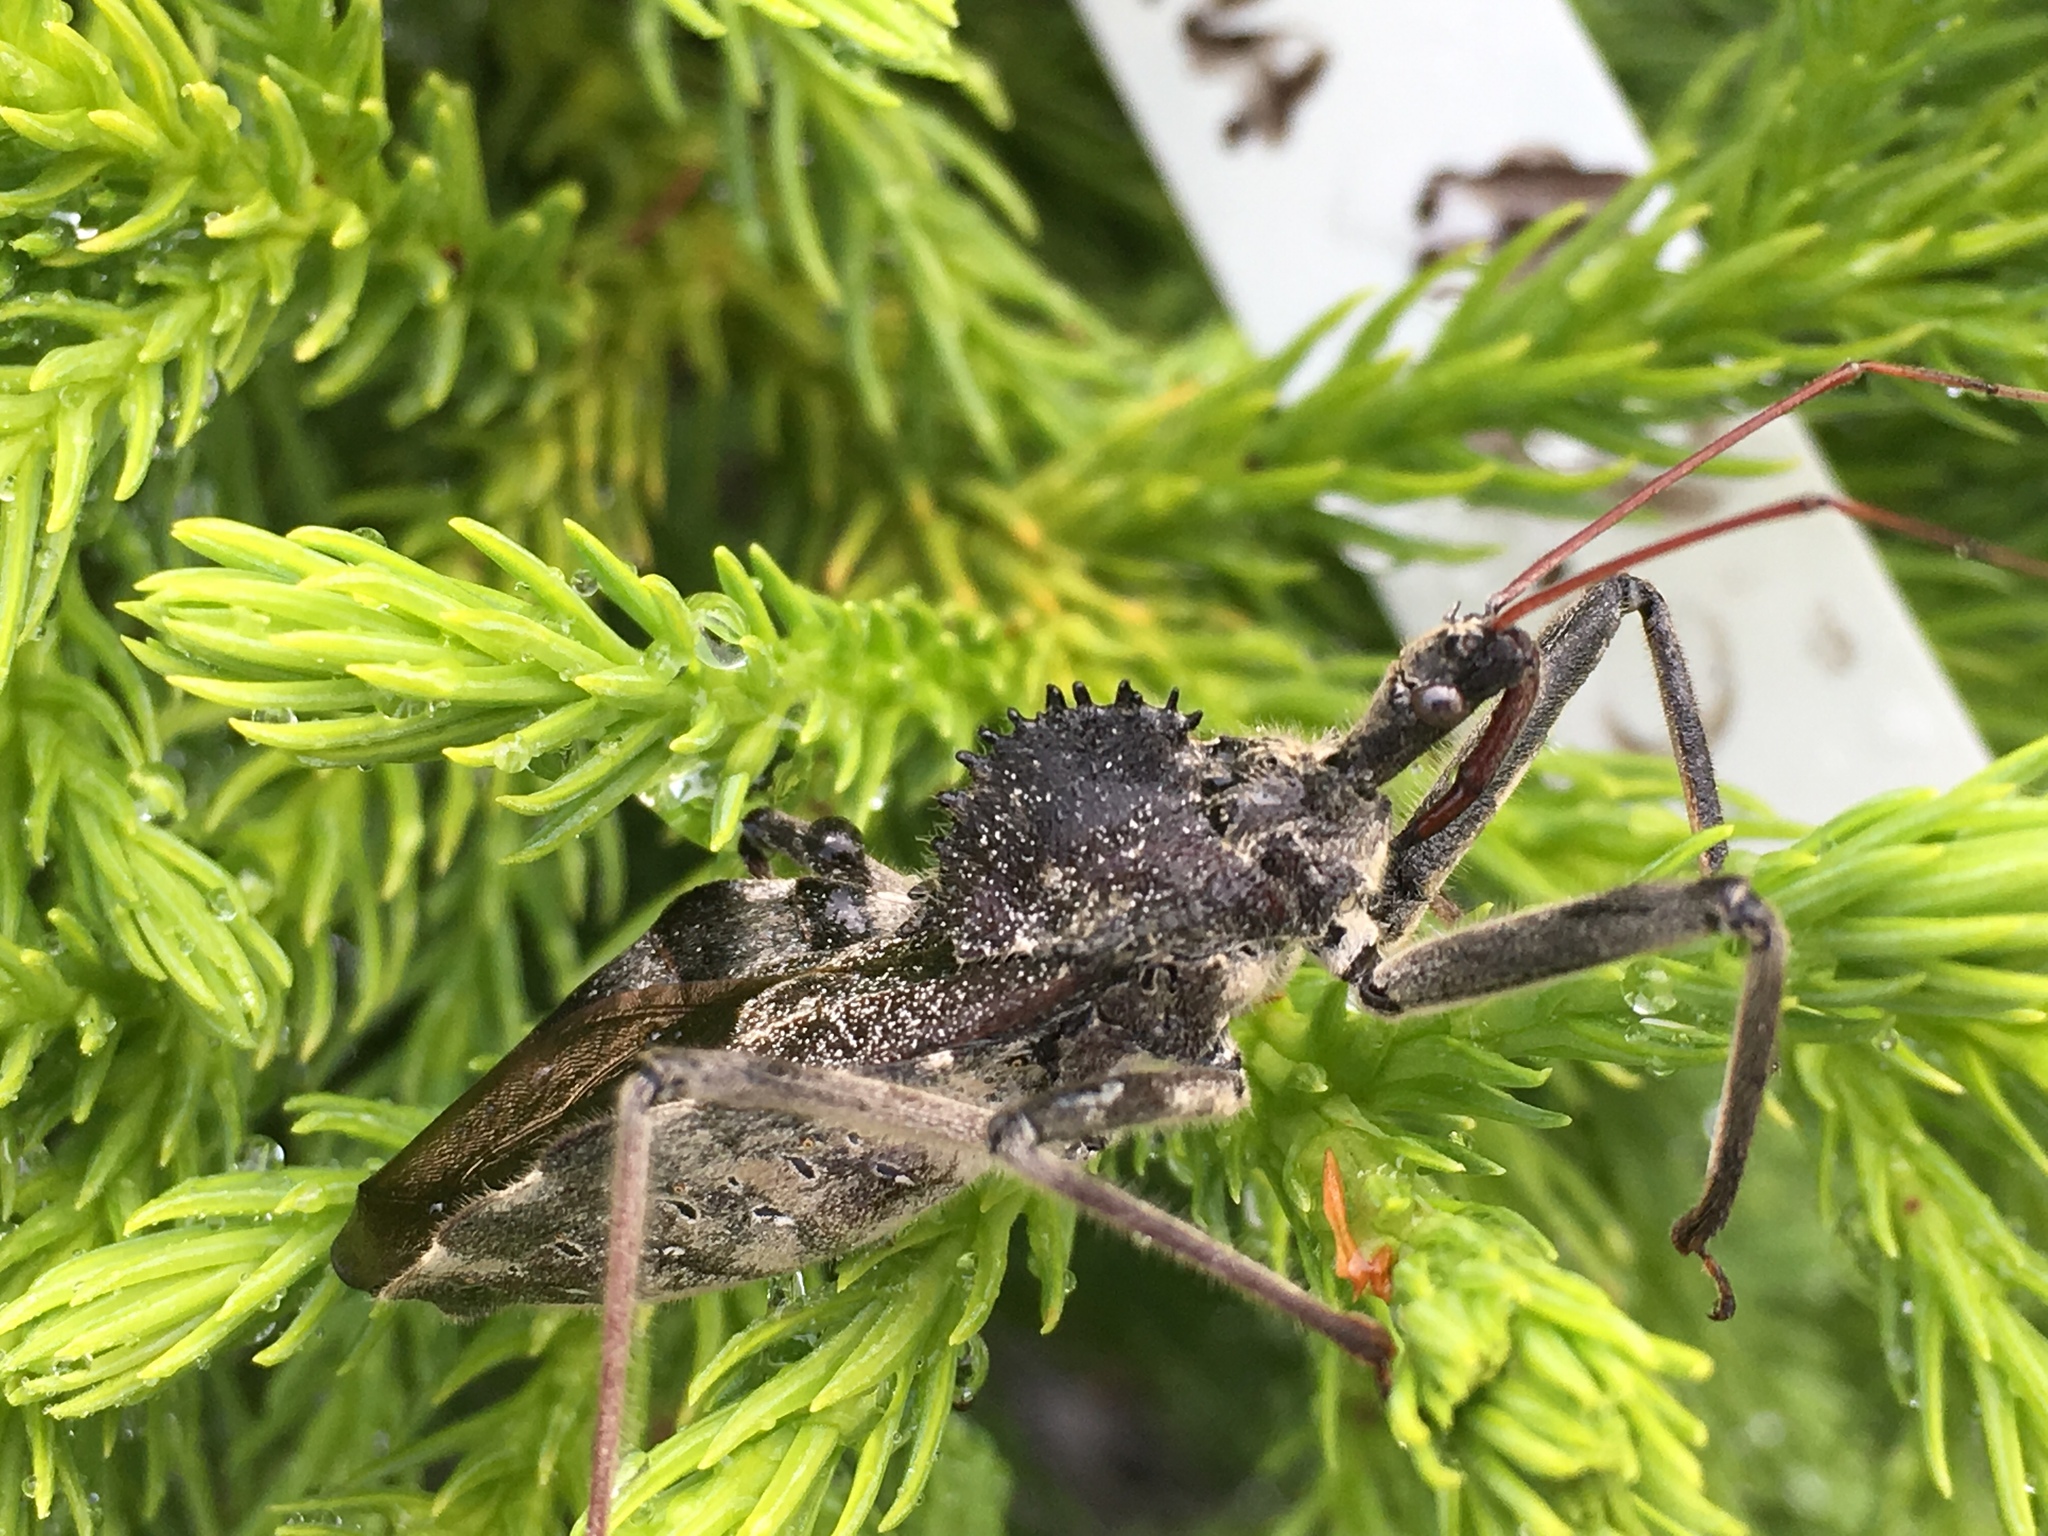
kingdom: Animalia
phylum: Arthropoda
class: Insecta
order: Hemiptera
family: Reduviidae
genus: Arilus
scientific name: Arilus cristatus
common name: North american wheel bug
